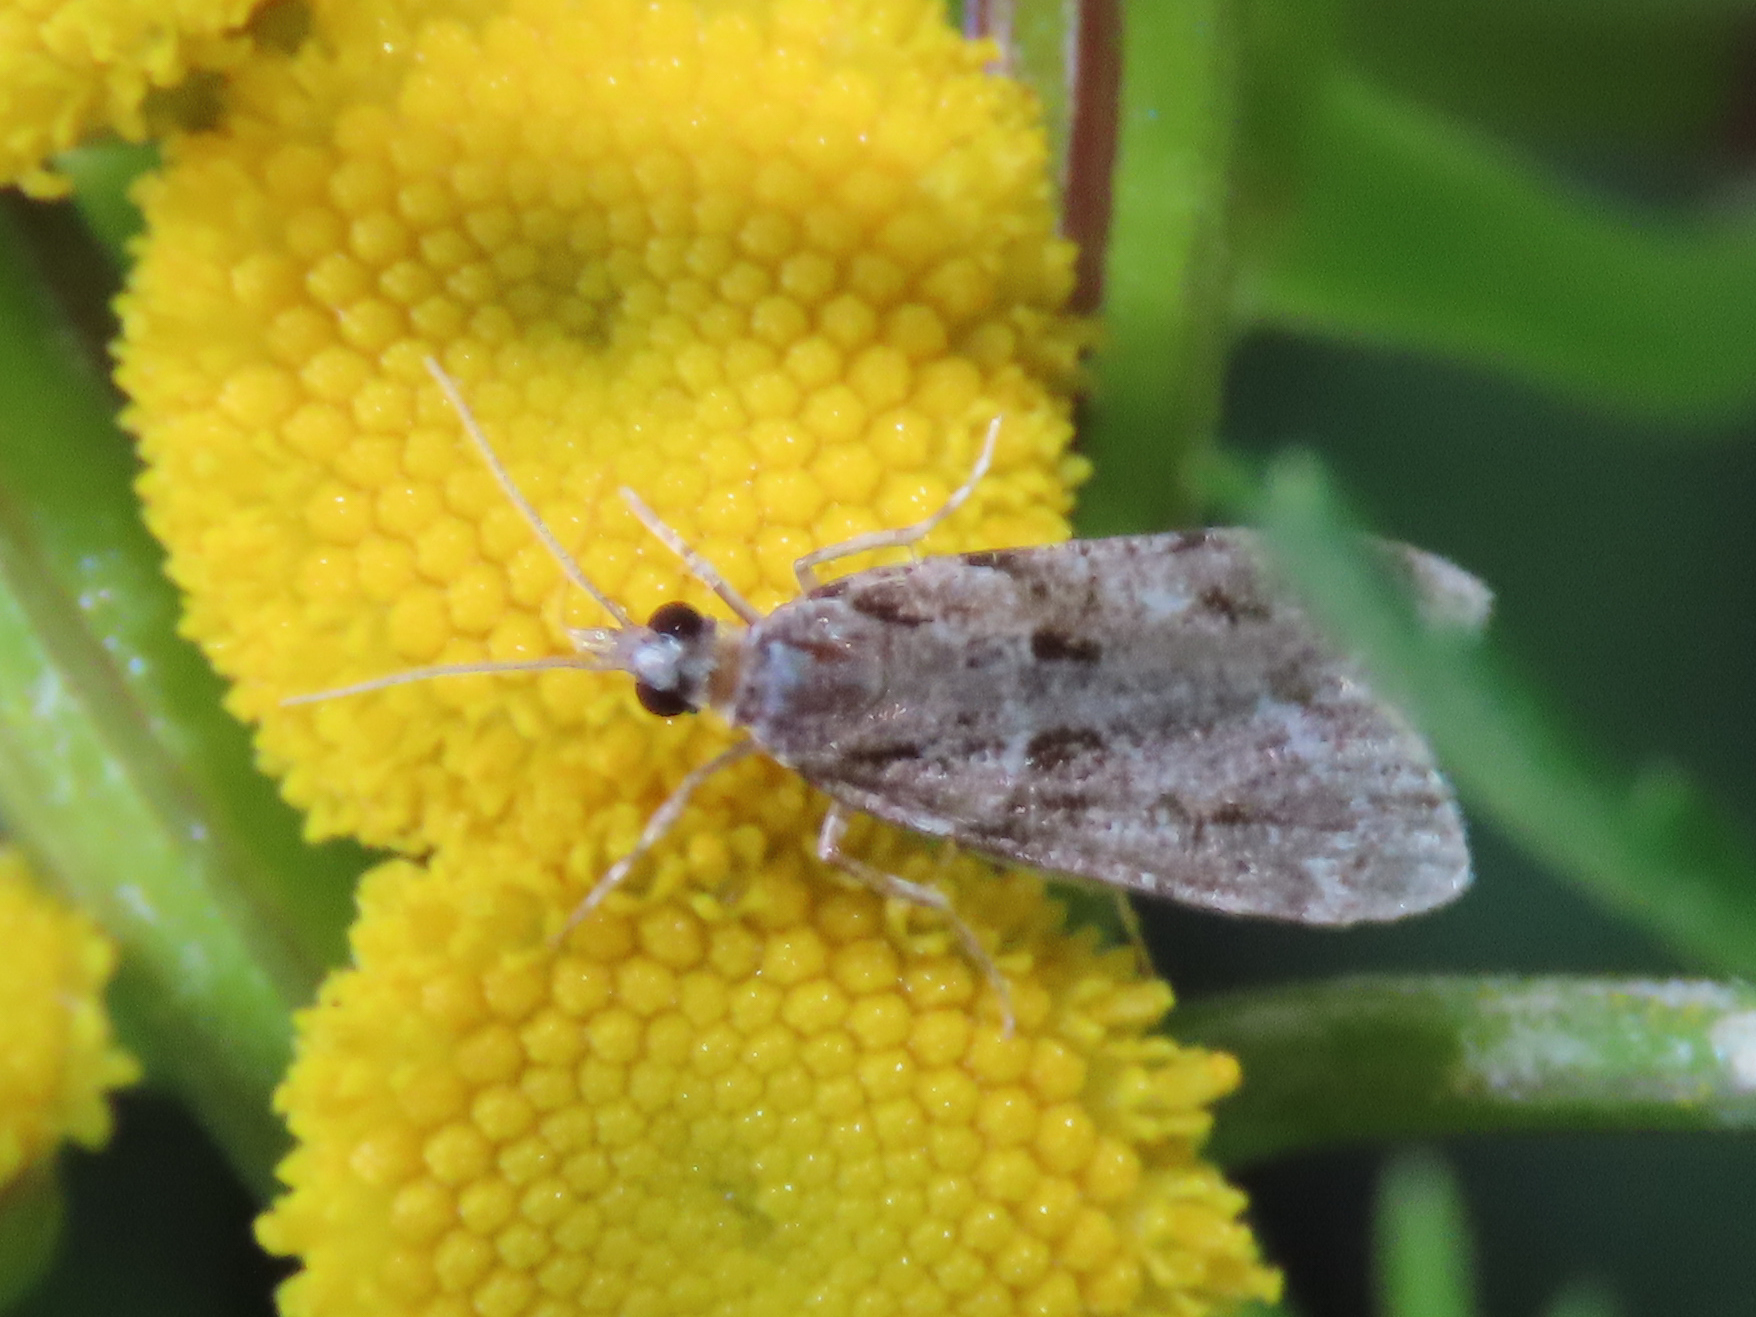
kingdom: Animalia
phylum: Arthropoda
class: Insecta
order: Lepidoptera
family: Crambidae
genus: Scoparia
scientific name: Scoparia biplagialis
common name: Double-striped scoparia moth
